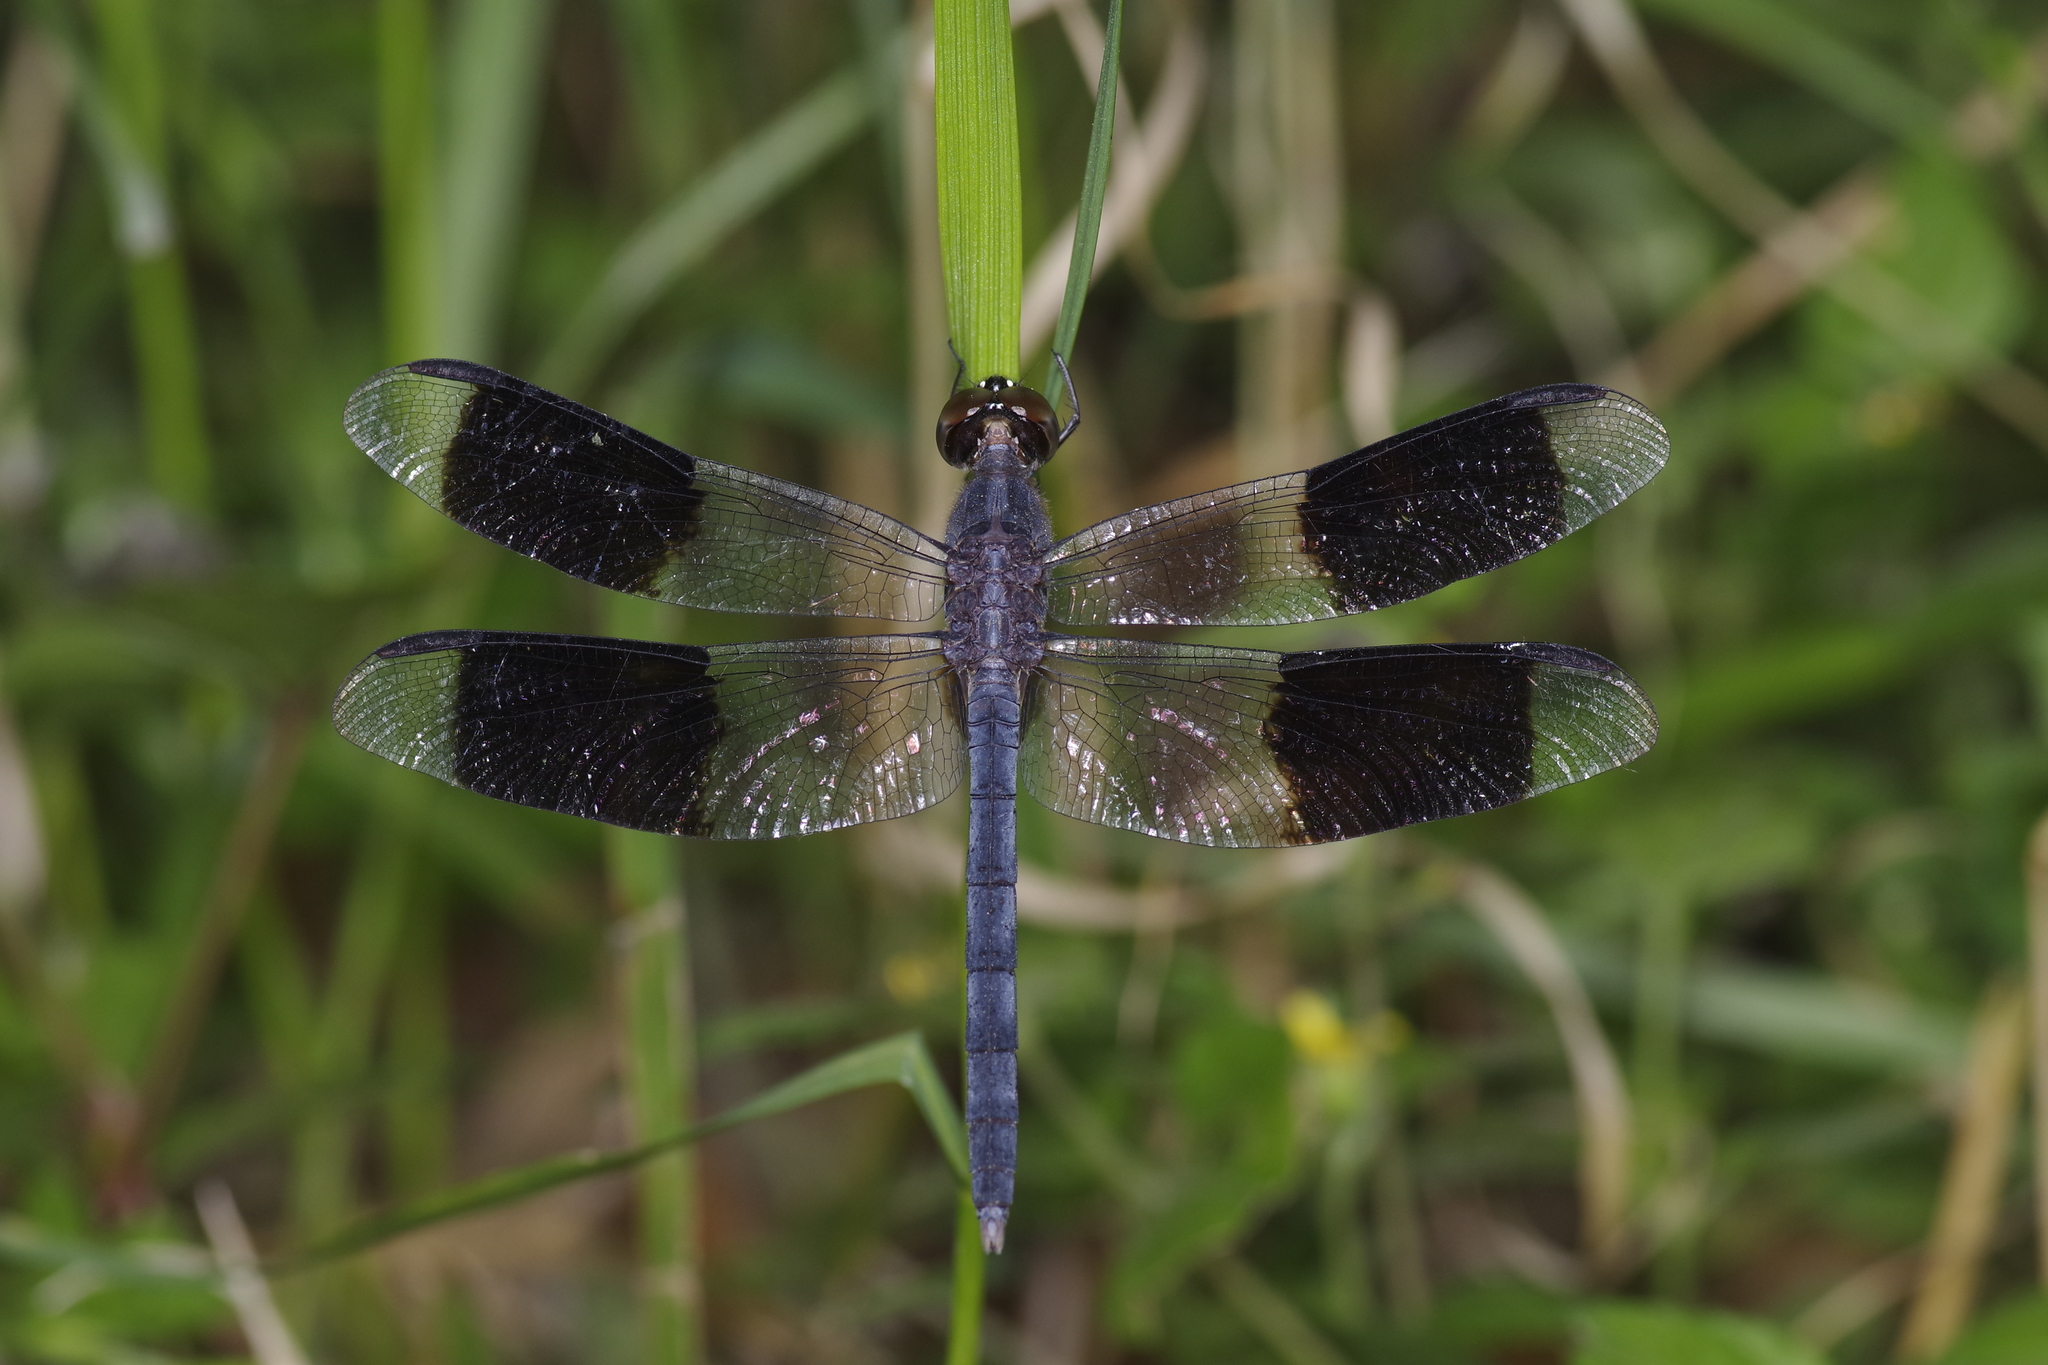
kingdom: Animalia
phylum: Arthropoda
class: Insecta
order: Odonata
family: Libellulidae
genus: Erythrodiplax
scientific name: Erythrodiplax umbrata
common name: Band-winged dragonlet
